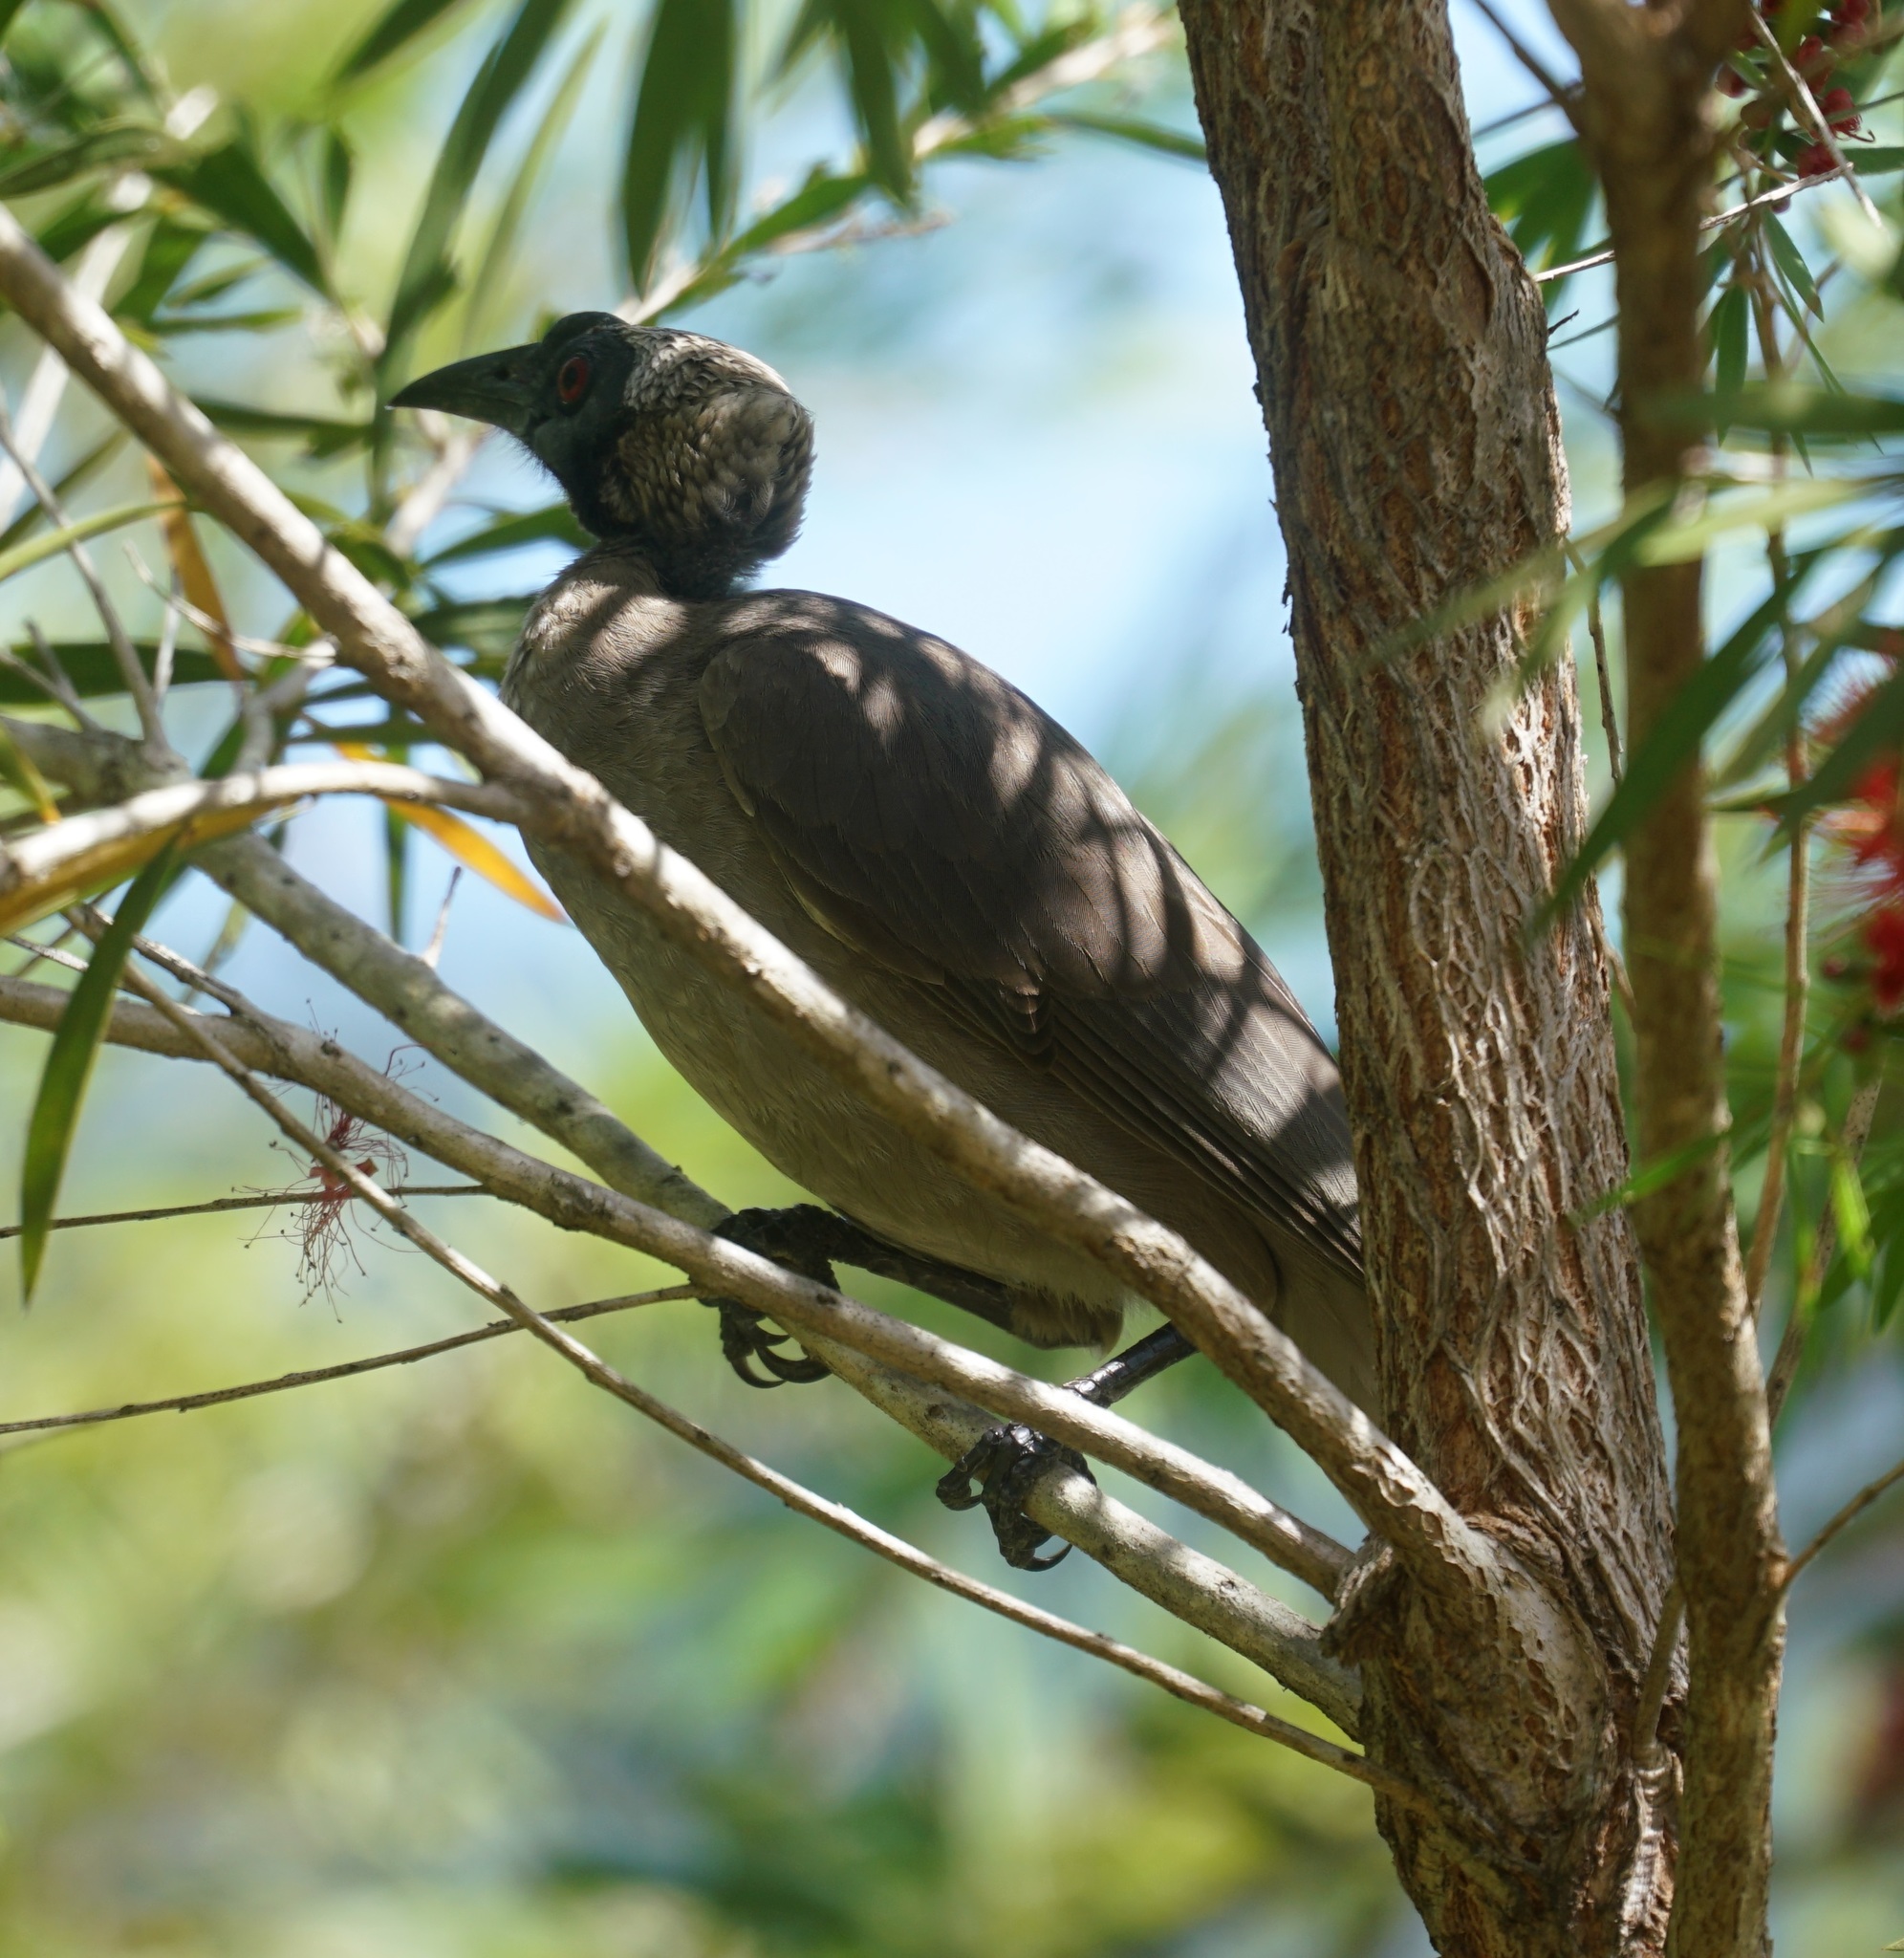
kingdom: Animalia
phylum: Chordata
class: Aves
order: Passeriformes
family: Meliphagidae
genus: Philemon
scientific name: Philemon buceroides
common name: Helmeted friarbird
